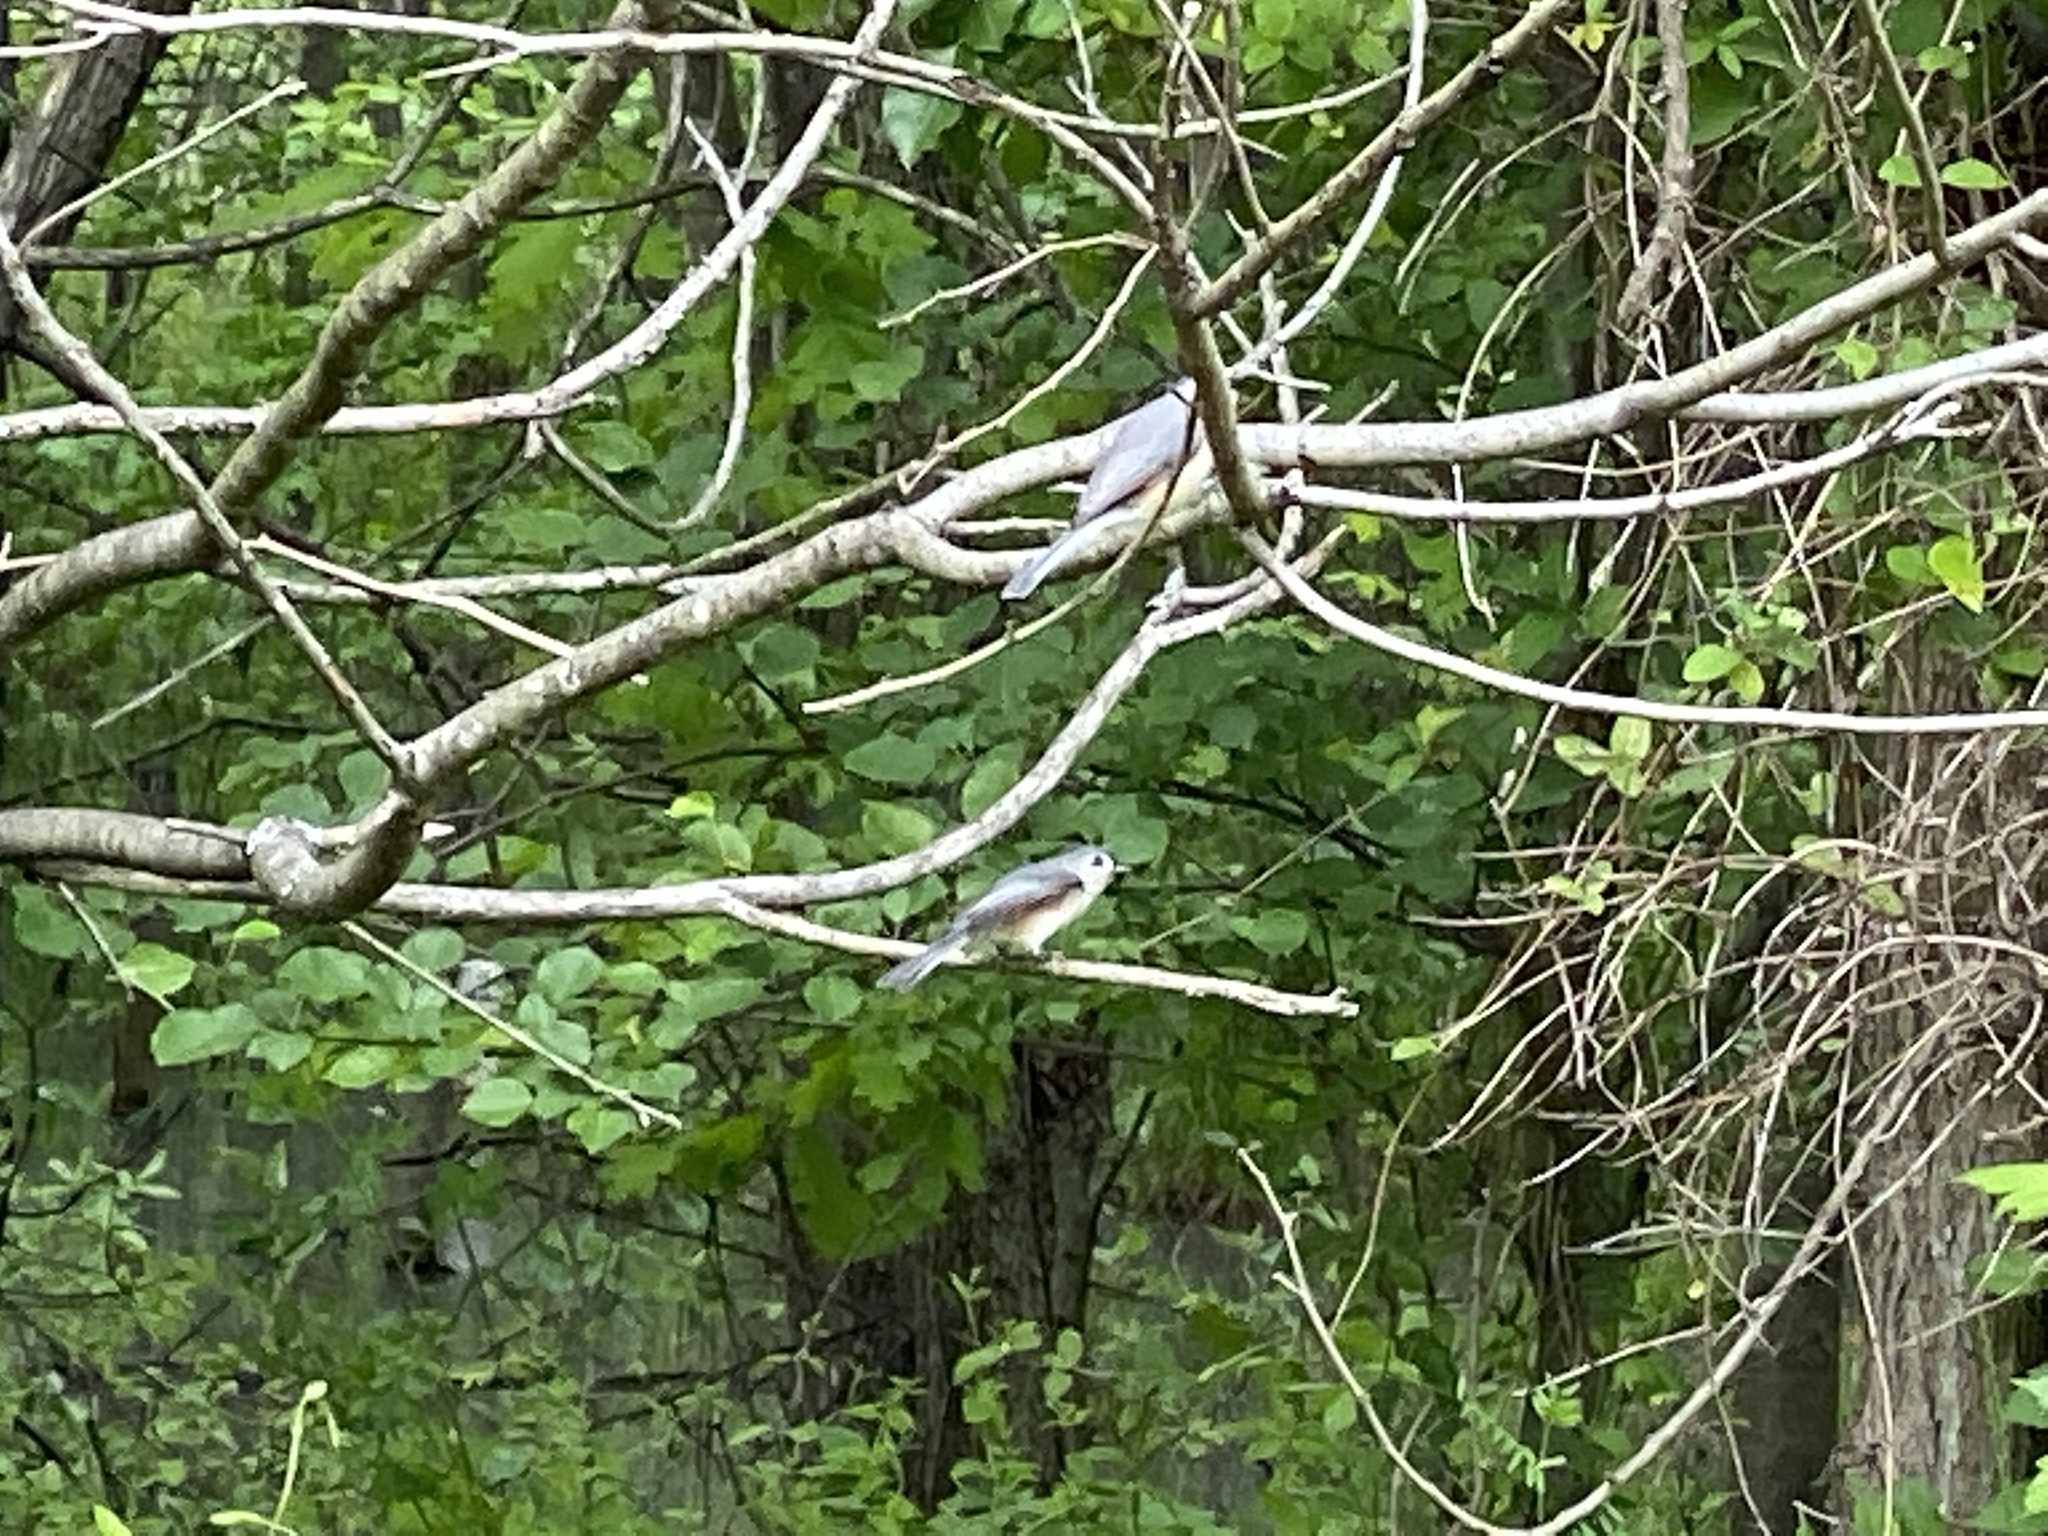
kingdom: Animalia
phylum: Chordata
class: Aves
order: Passeriformes
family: Paridae
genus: Baeolophus
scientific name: Baeolophus bicolor
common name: Tufted titmouse
